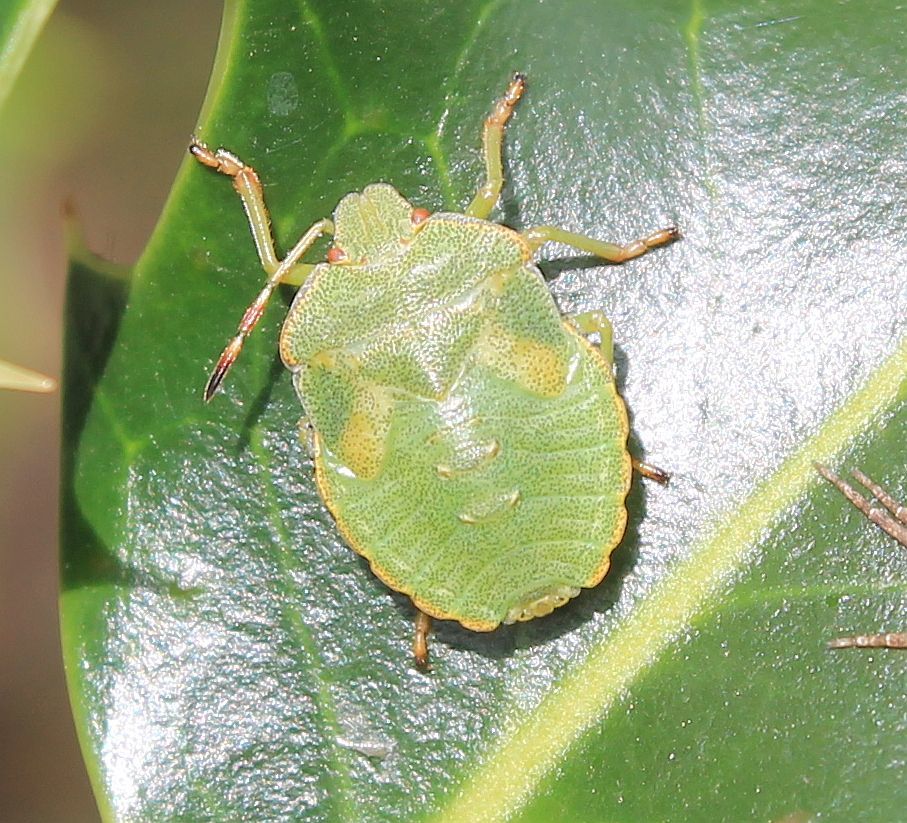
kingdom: Animalia
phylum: Arthropoda
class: Insecta
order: Hemiptera
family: Pentatomidae
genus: Palomena
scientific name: Palomena prasina
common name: Green shieldbug
